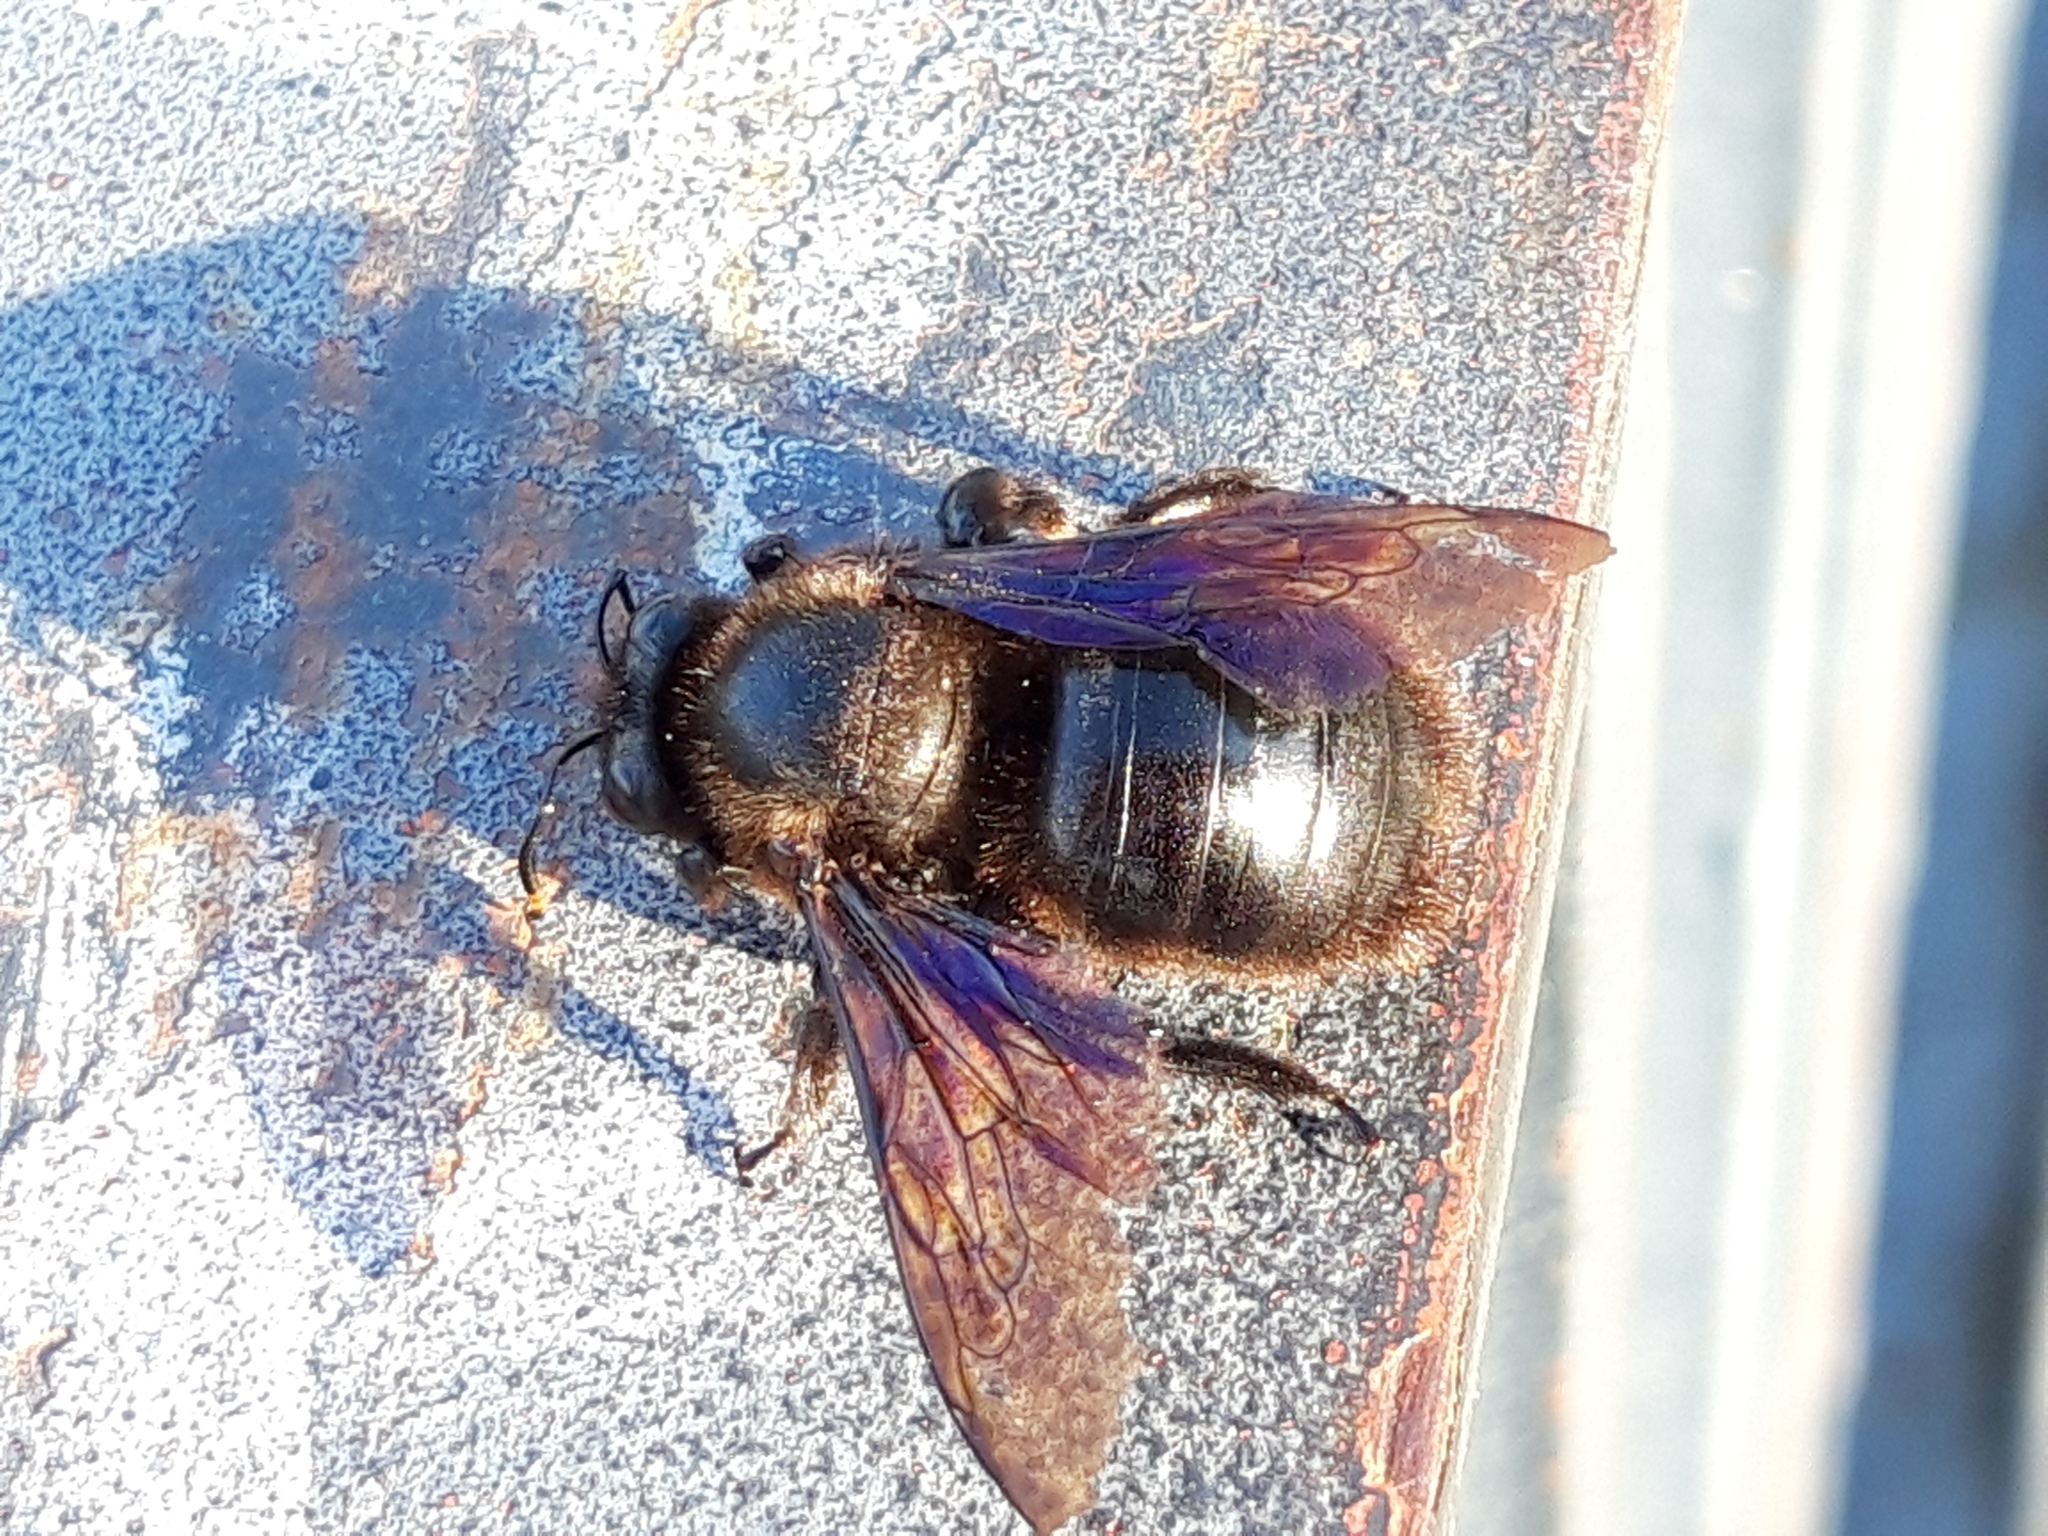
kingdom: Animalia
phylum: Arthropoda
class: Insecta
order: Hymenoptera
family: Apidae
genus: Xylocopa
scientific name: Xylocopa violacea
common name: Violet carpenter bee
